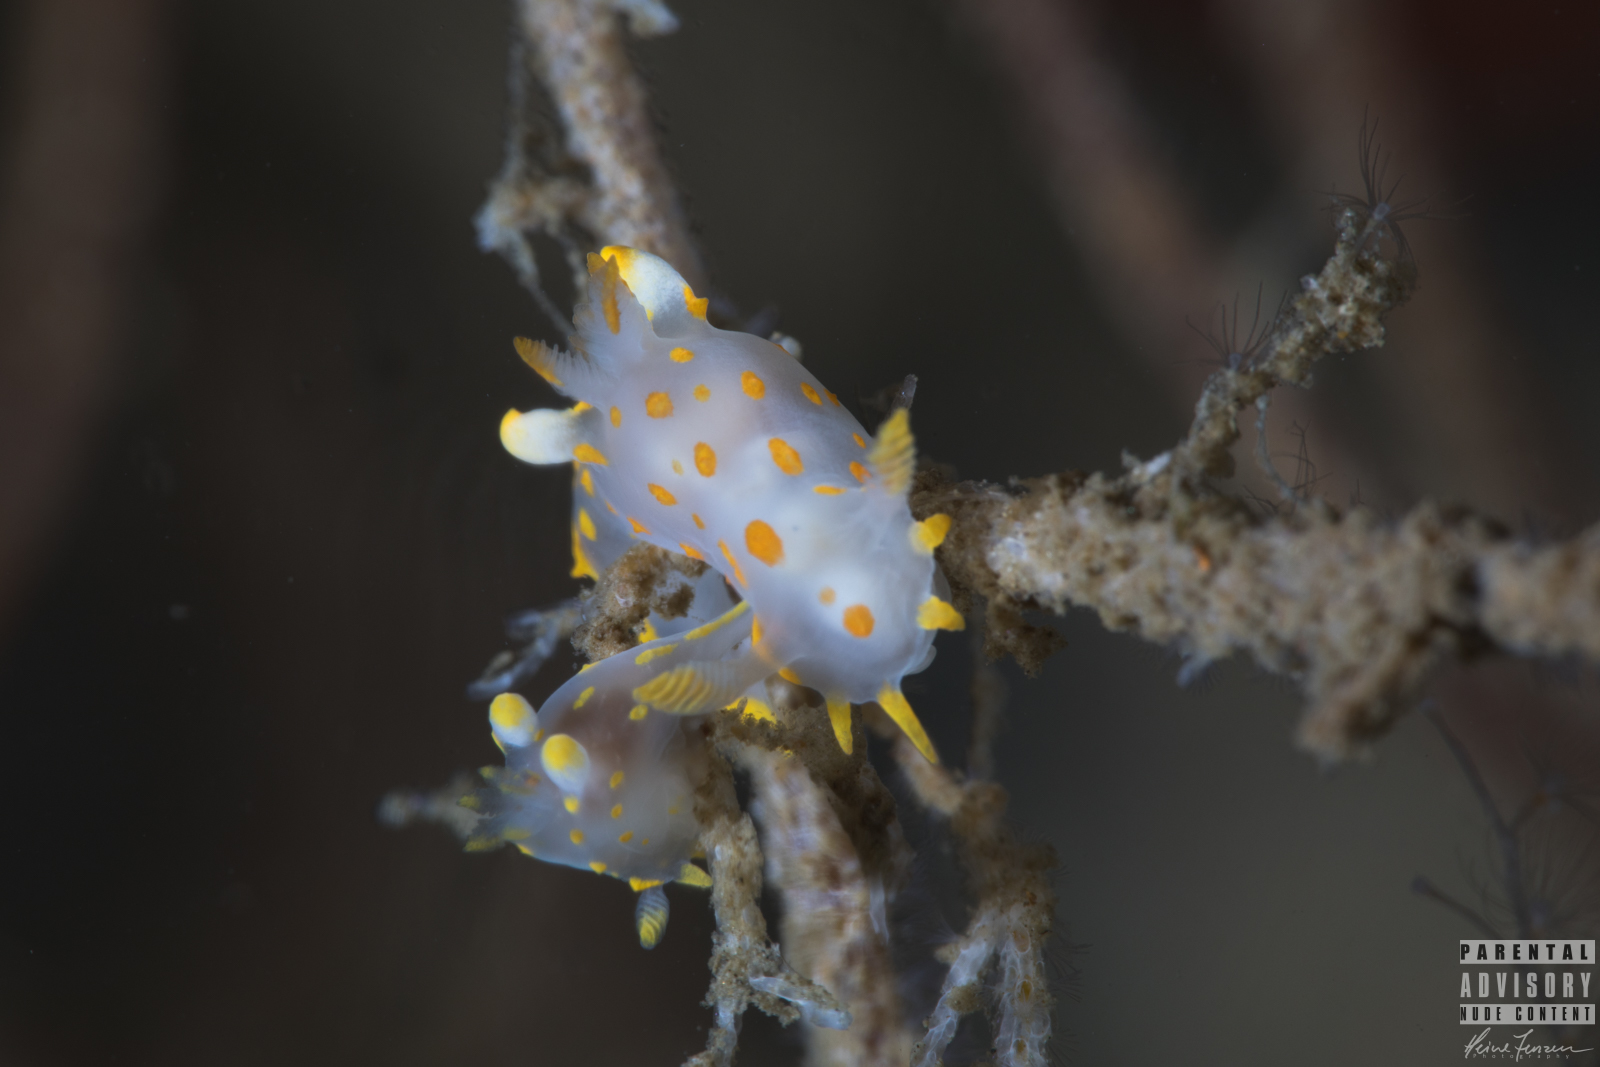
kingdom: Animalia
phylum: Mollusca
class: Gastropoda
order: Nudibranchia
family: Polyceridae
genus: Polycera
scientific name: Polycera quadrilineata
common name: Four-striped polycera
